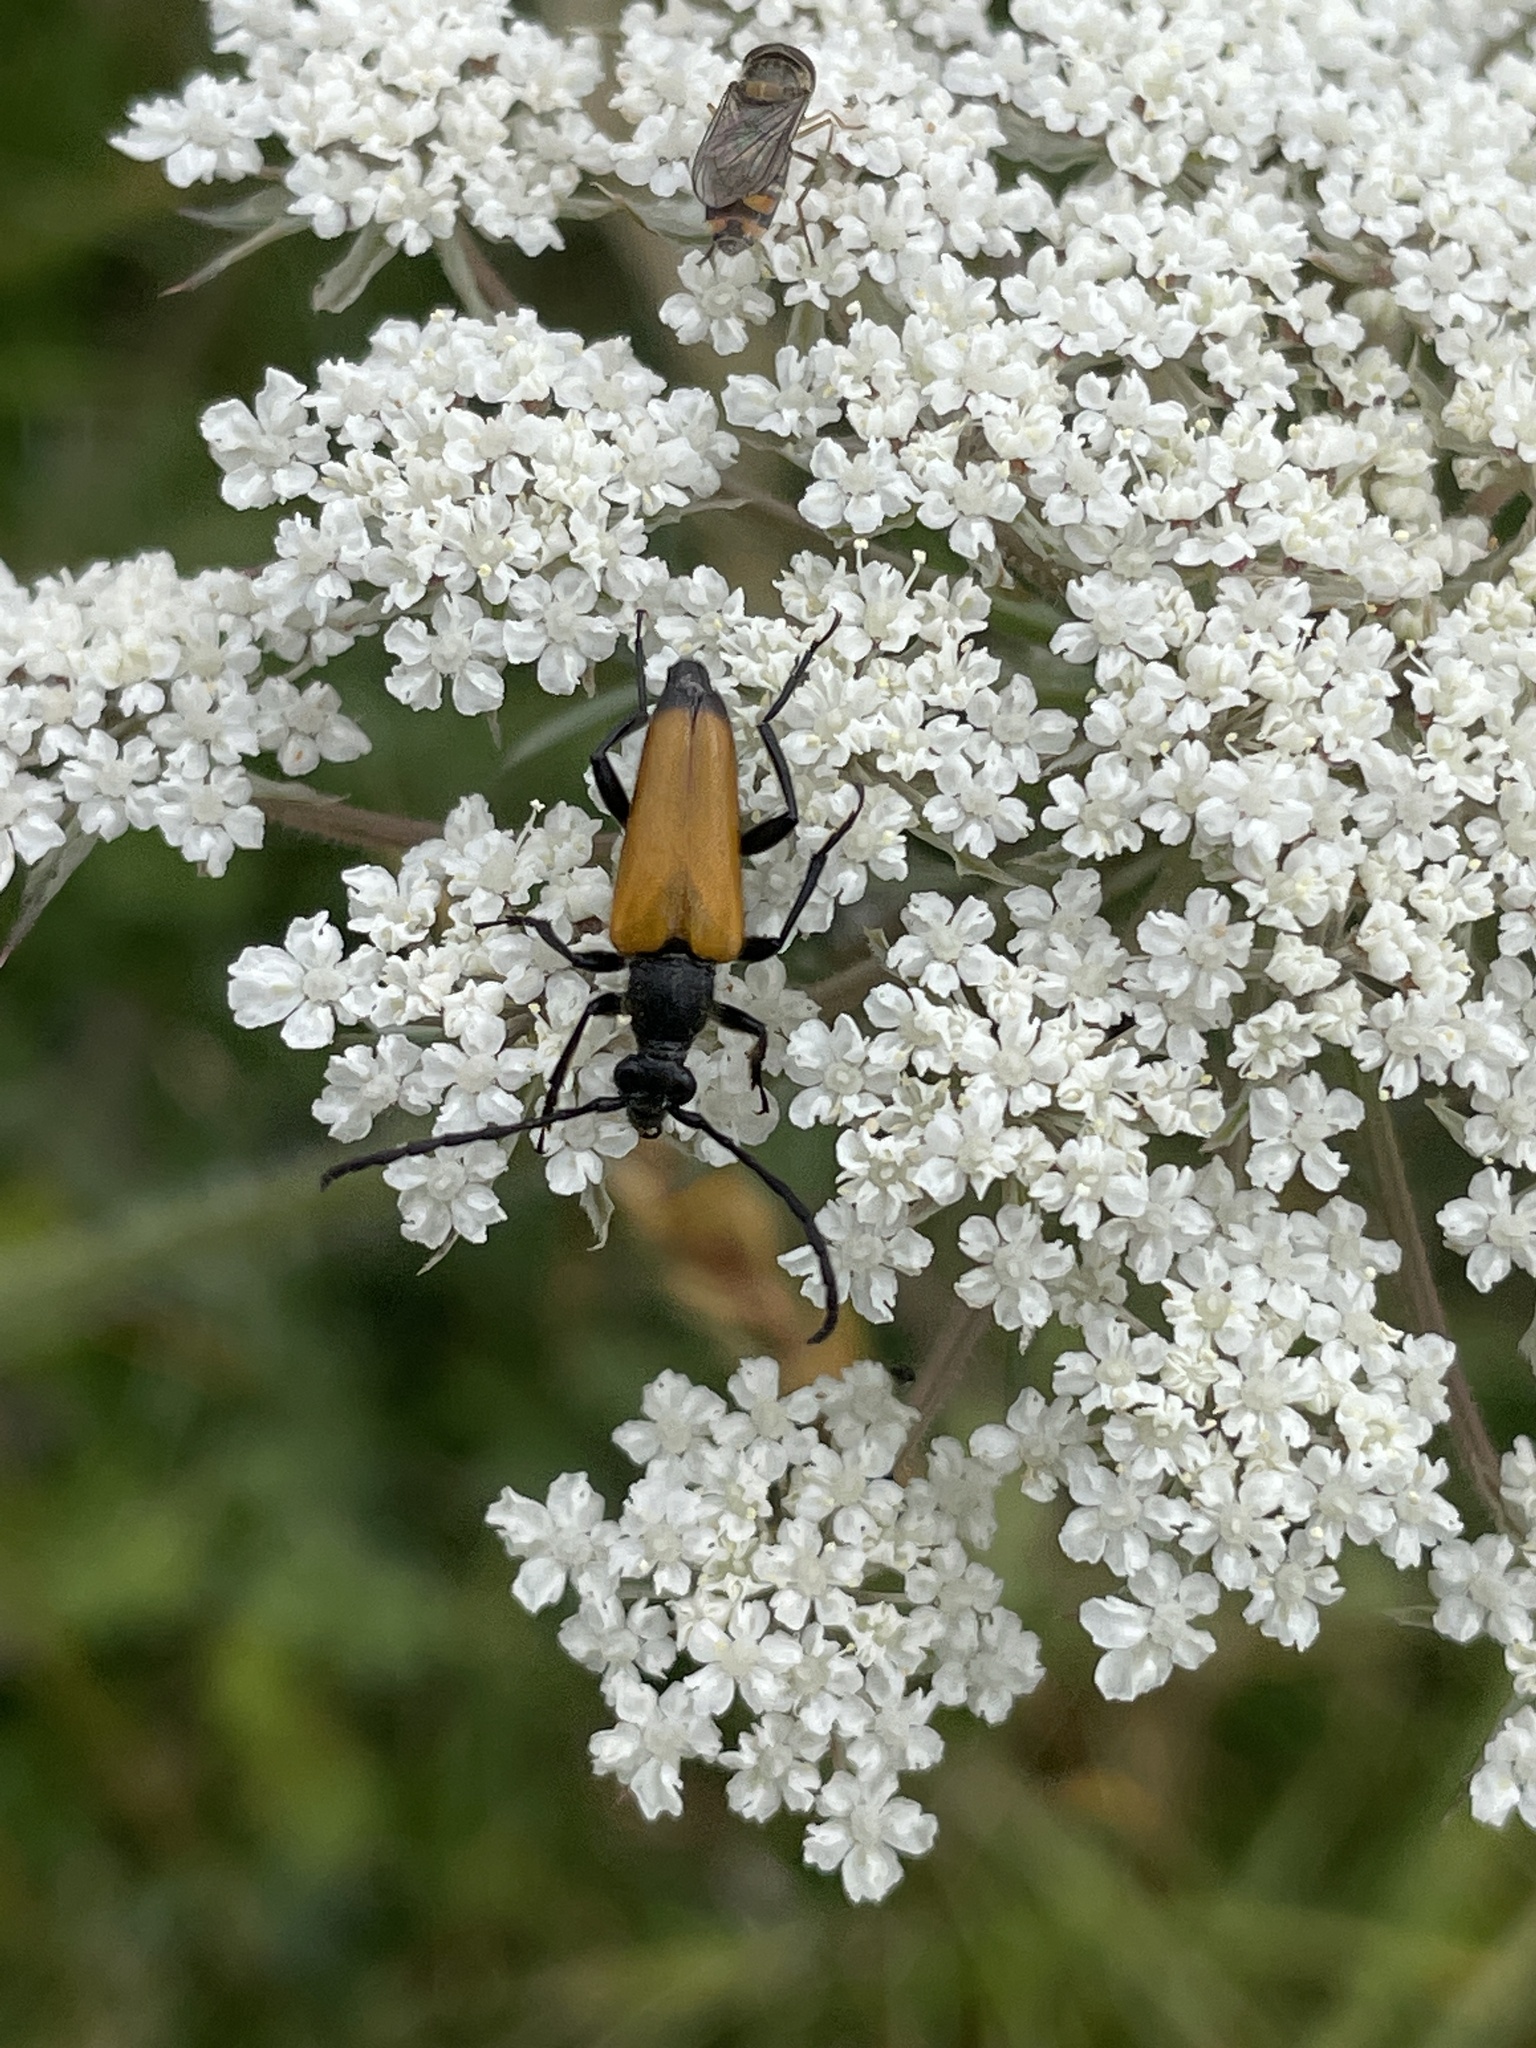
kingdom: Animalia
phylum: Arthropoda
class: Insecta
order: Coleoptera
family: Cerambycidae
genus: Paracorymbia
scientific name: Paracorymbia fulva
